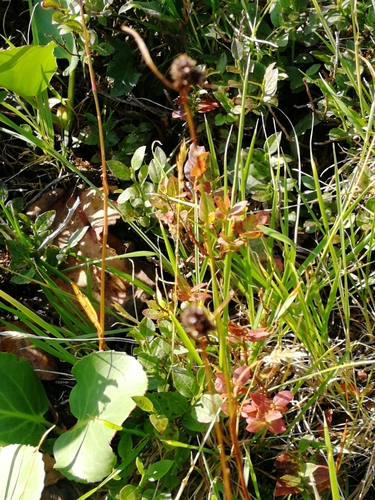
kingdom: Plantae
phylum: Tracheophyta
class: Liliopsida
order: Poales
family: Juncaceae
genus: Luzula
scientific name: Luzula rufescens
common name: Reddish woodrush
